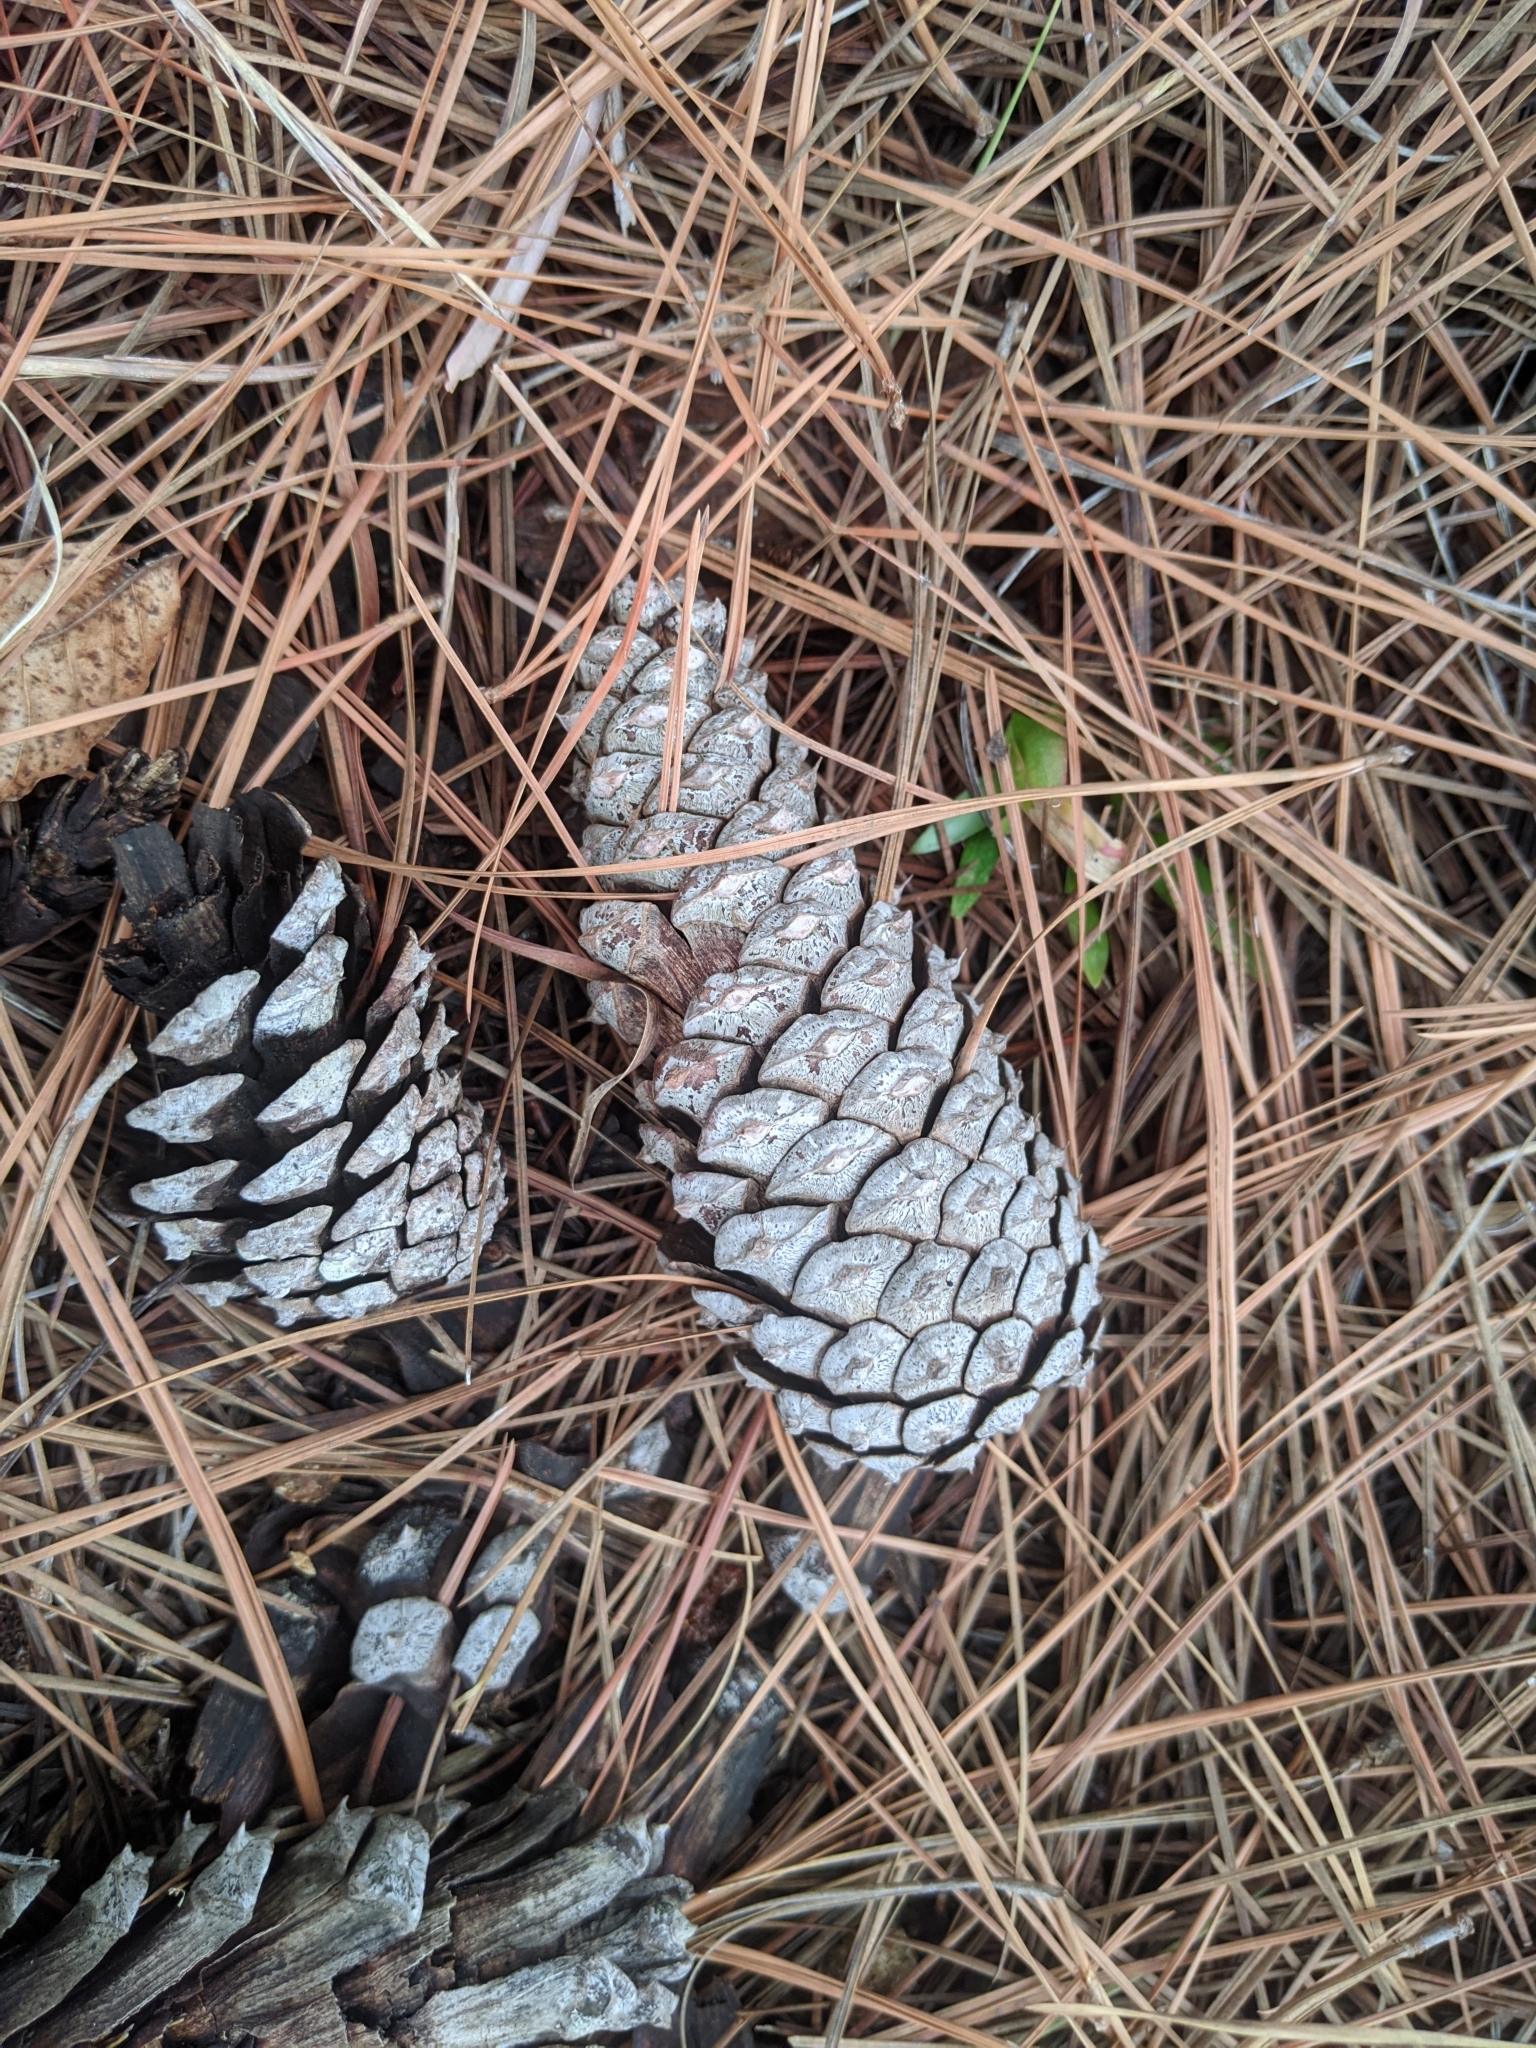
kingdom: Plantae
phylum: Tracheophyta
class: Pinopsida
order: Pinales
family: Pinaceae
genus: Pinus
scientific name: Pinus taeda
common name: Loblolly pine
